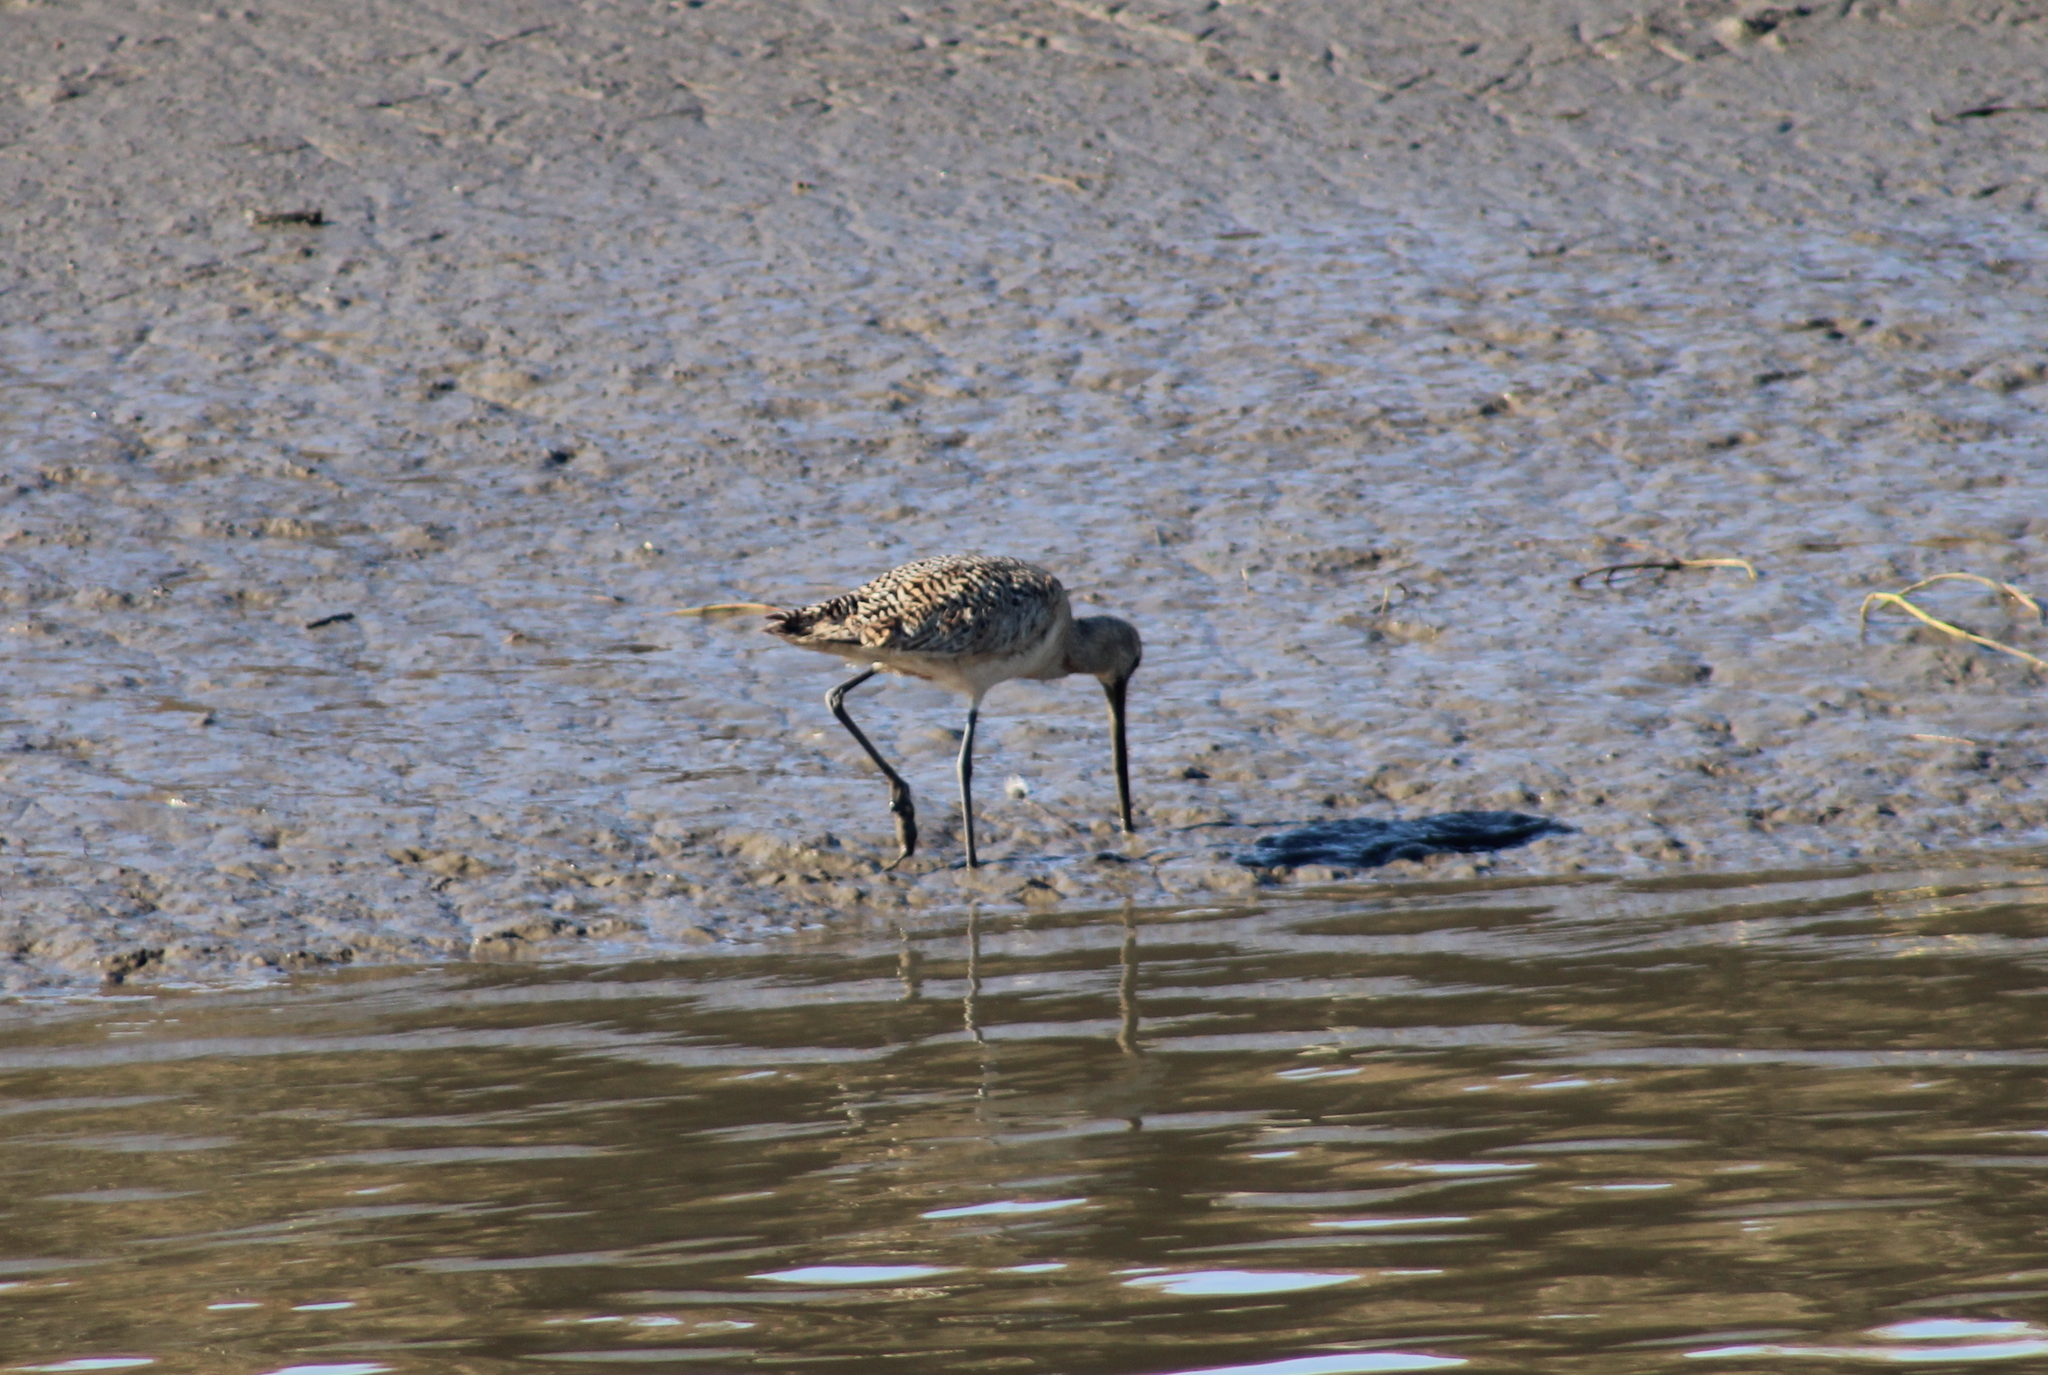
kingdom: Animalia
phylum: Chordata
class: Aves
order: Charadriiformes
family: Scolopacidae
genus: Limosa
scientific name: Limosa fedoa
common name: Marbled godwit
